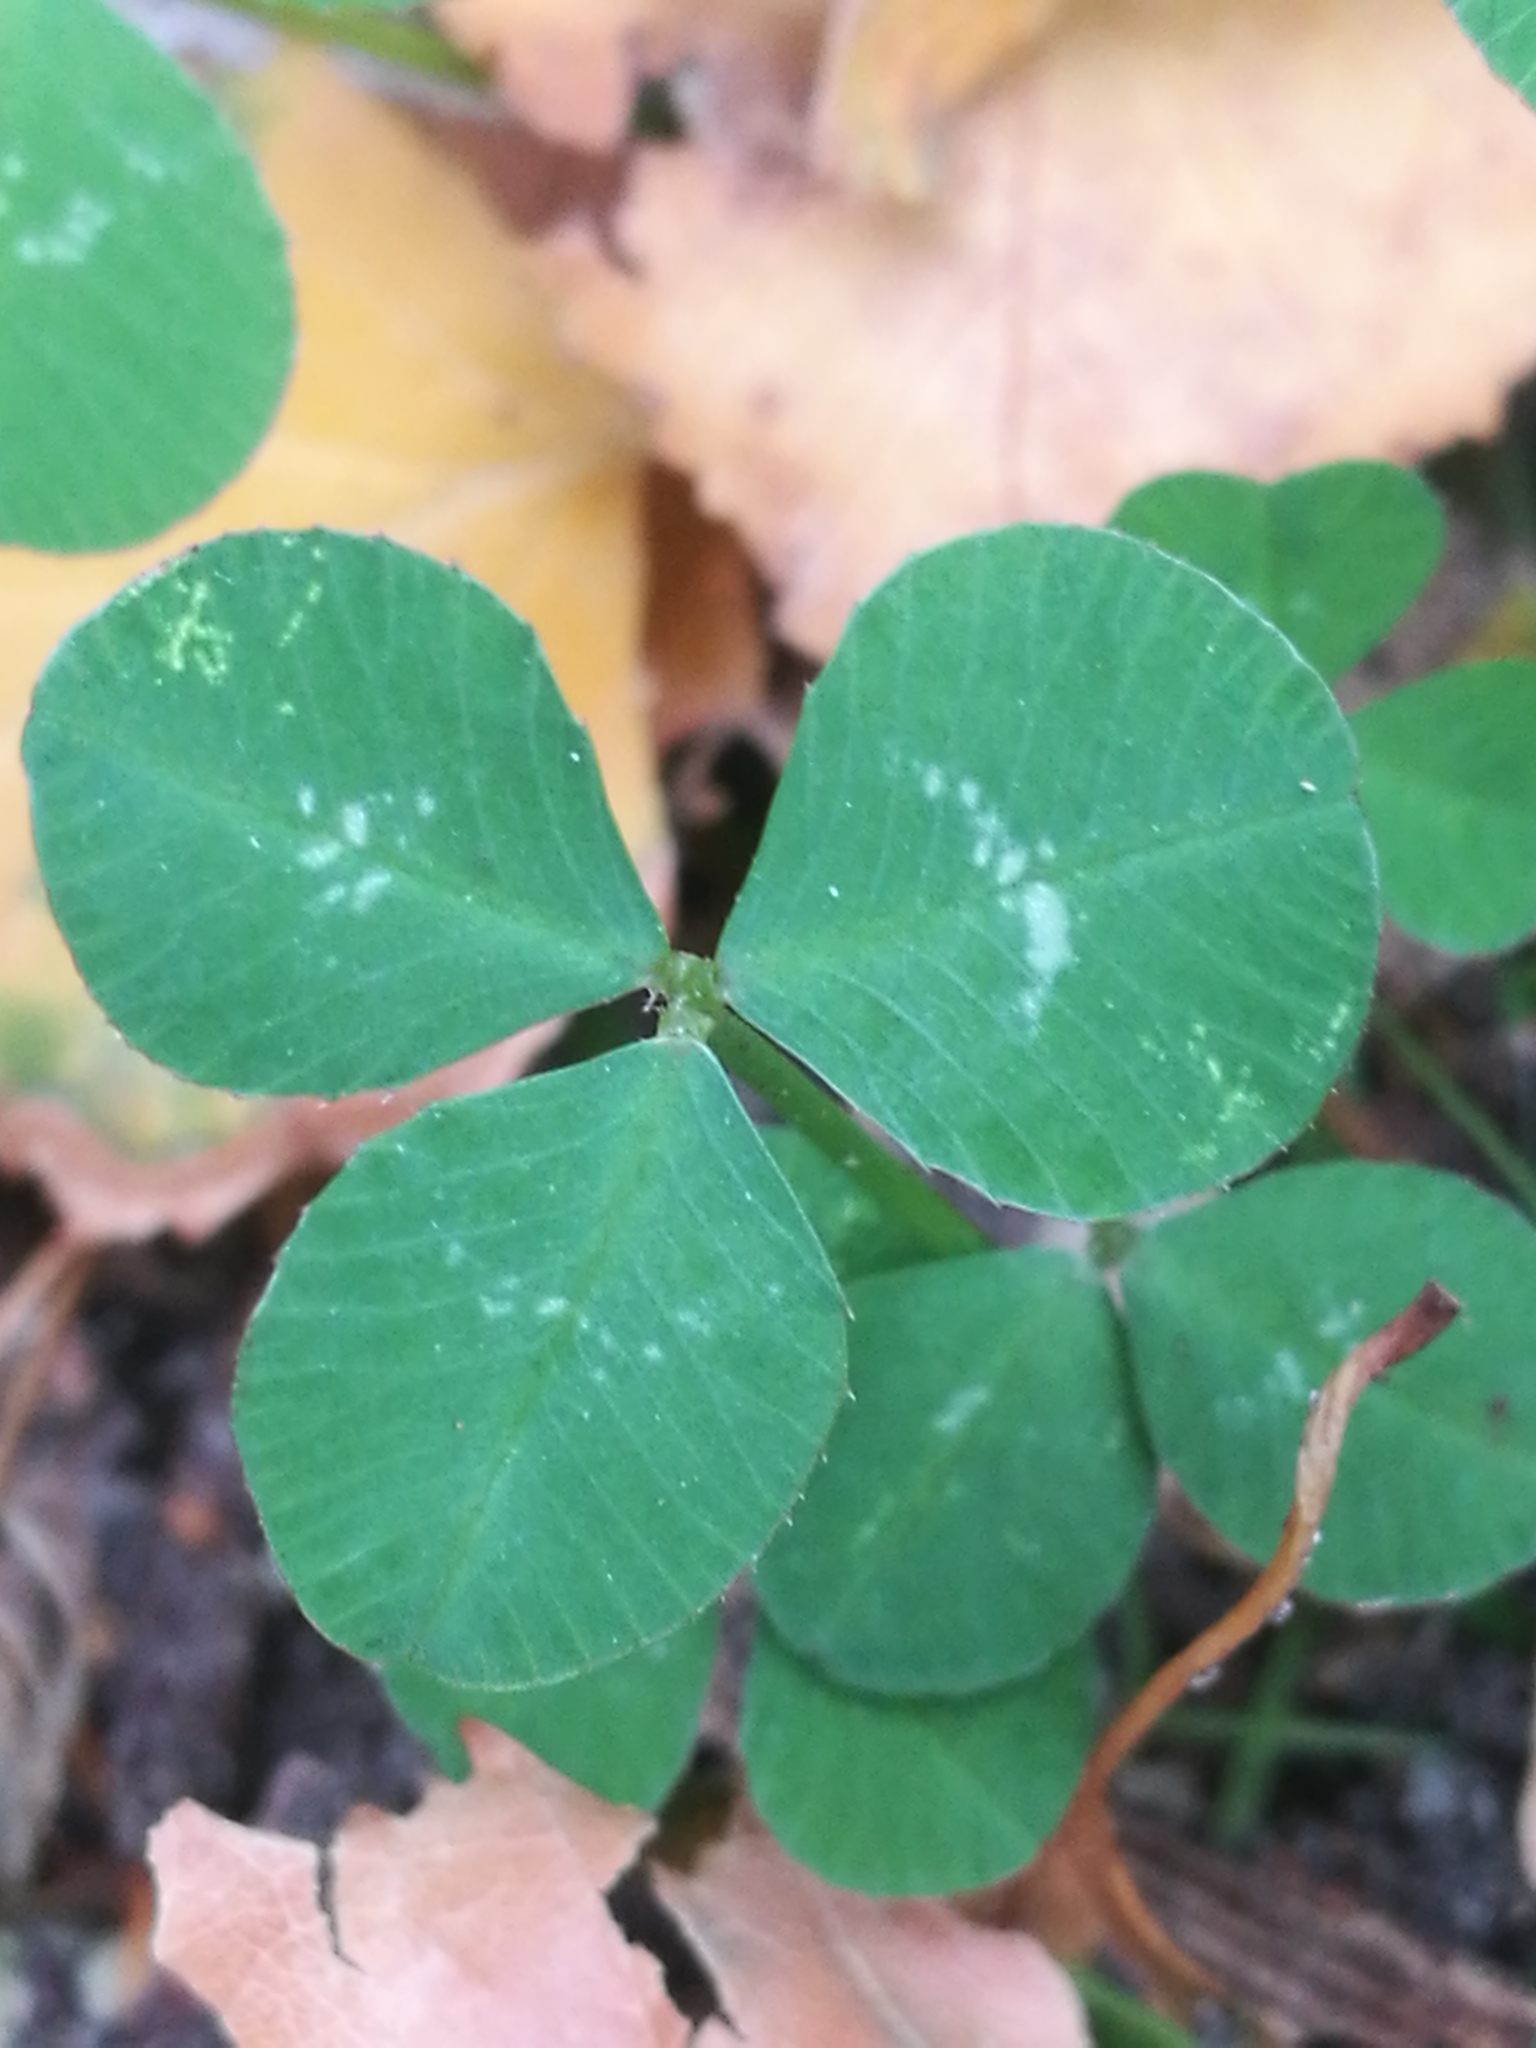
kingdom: Plantae
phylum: Tracheophyta
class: Magnoliopsida
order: Fabales
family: Fabaceae
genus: Trifolium
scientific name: Trifolium repens
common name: White clover
